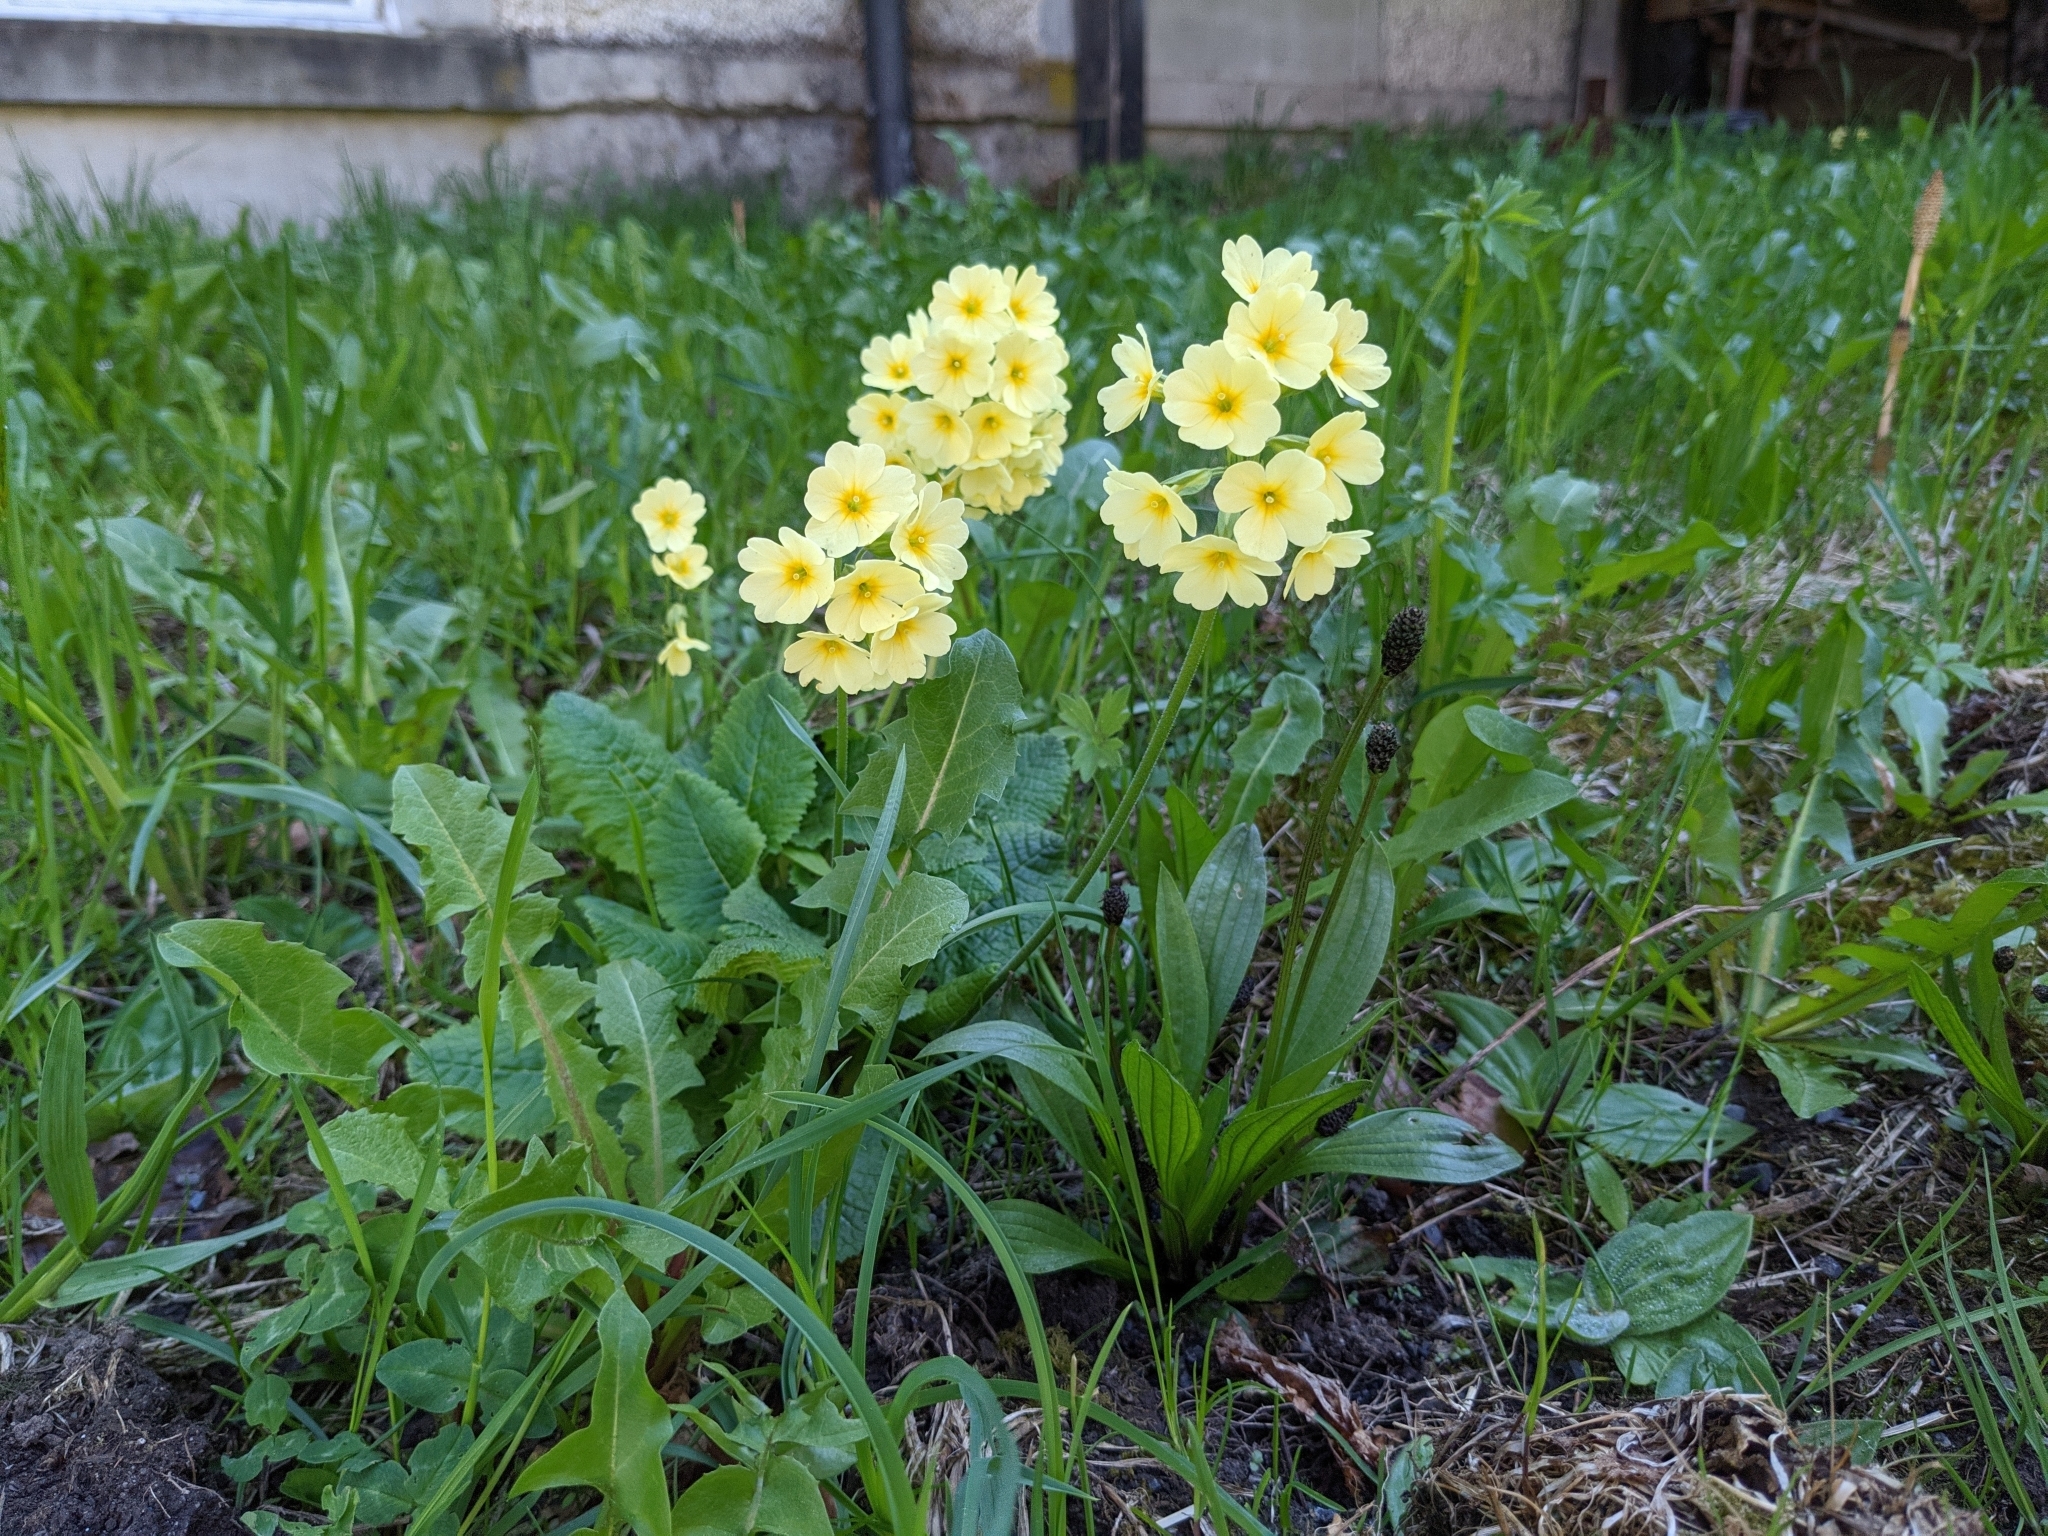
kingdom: Plantae
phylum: Tracheophyta
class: Magnoliopsida
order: Ericales
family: Primulaceae
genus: Primula
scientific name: Primula elatior
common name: Oxlip
